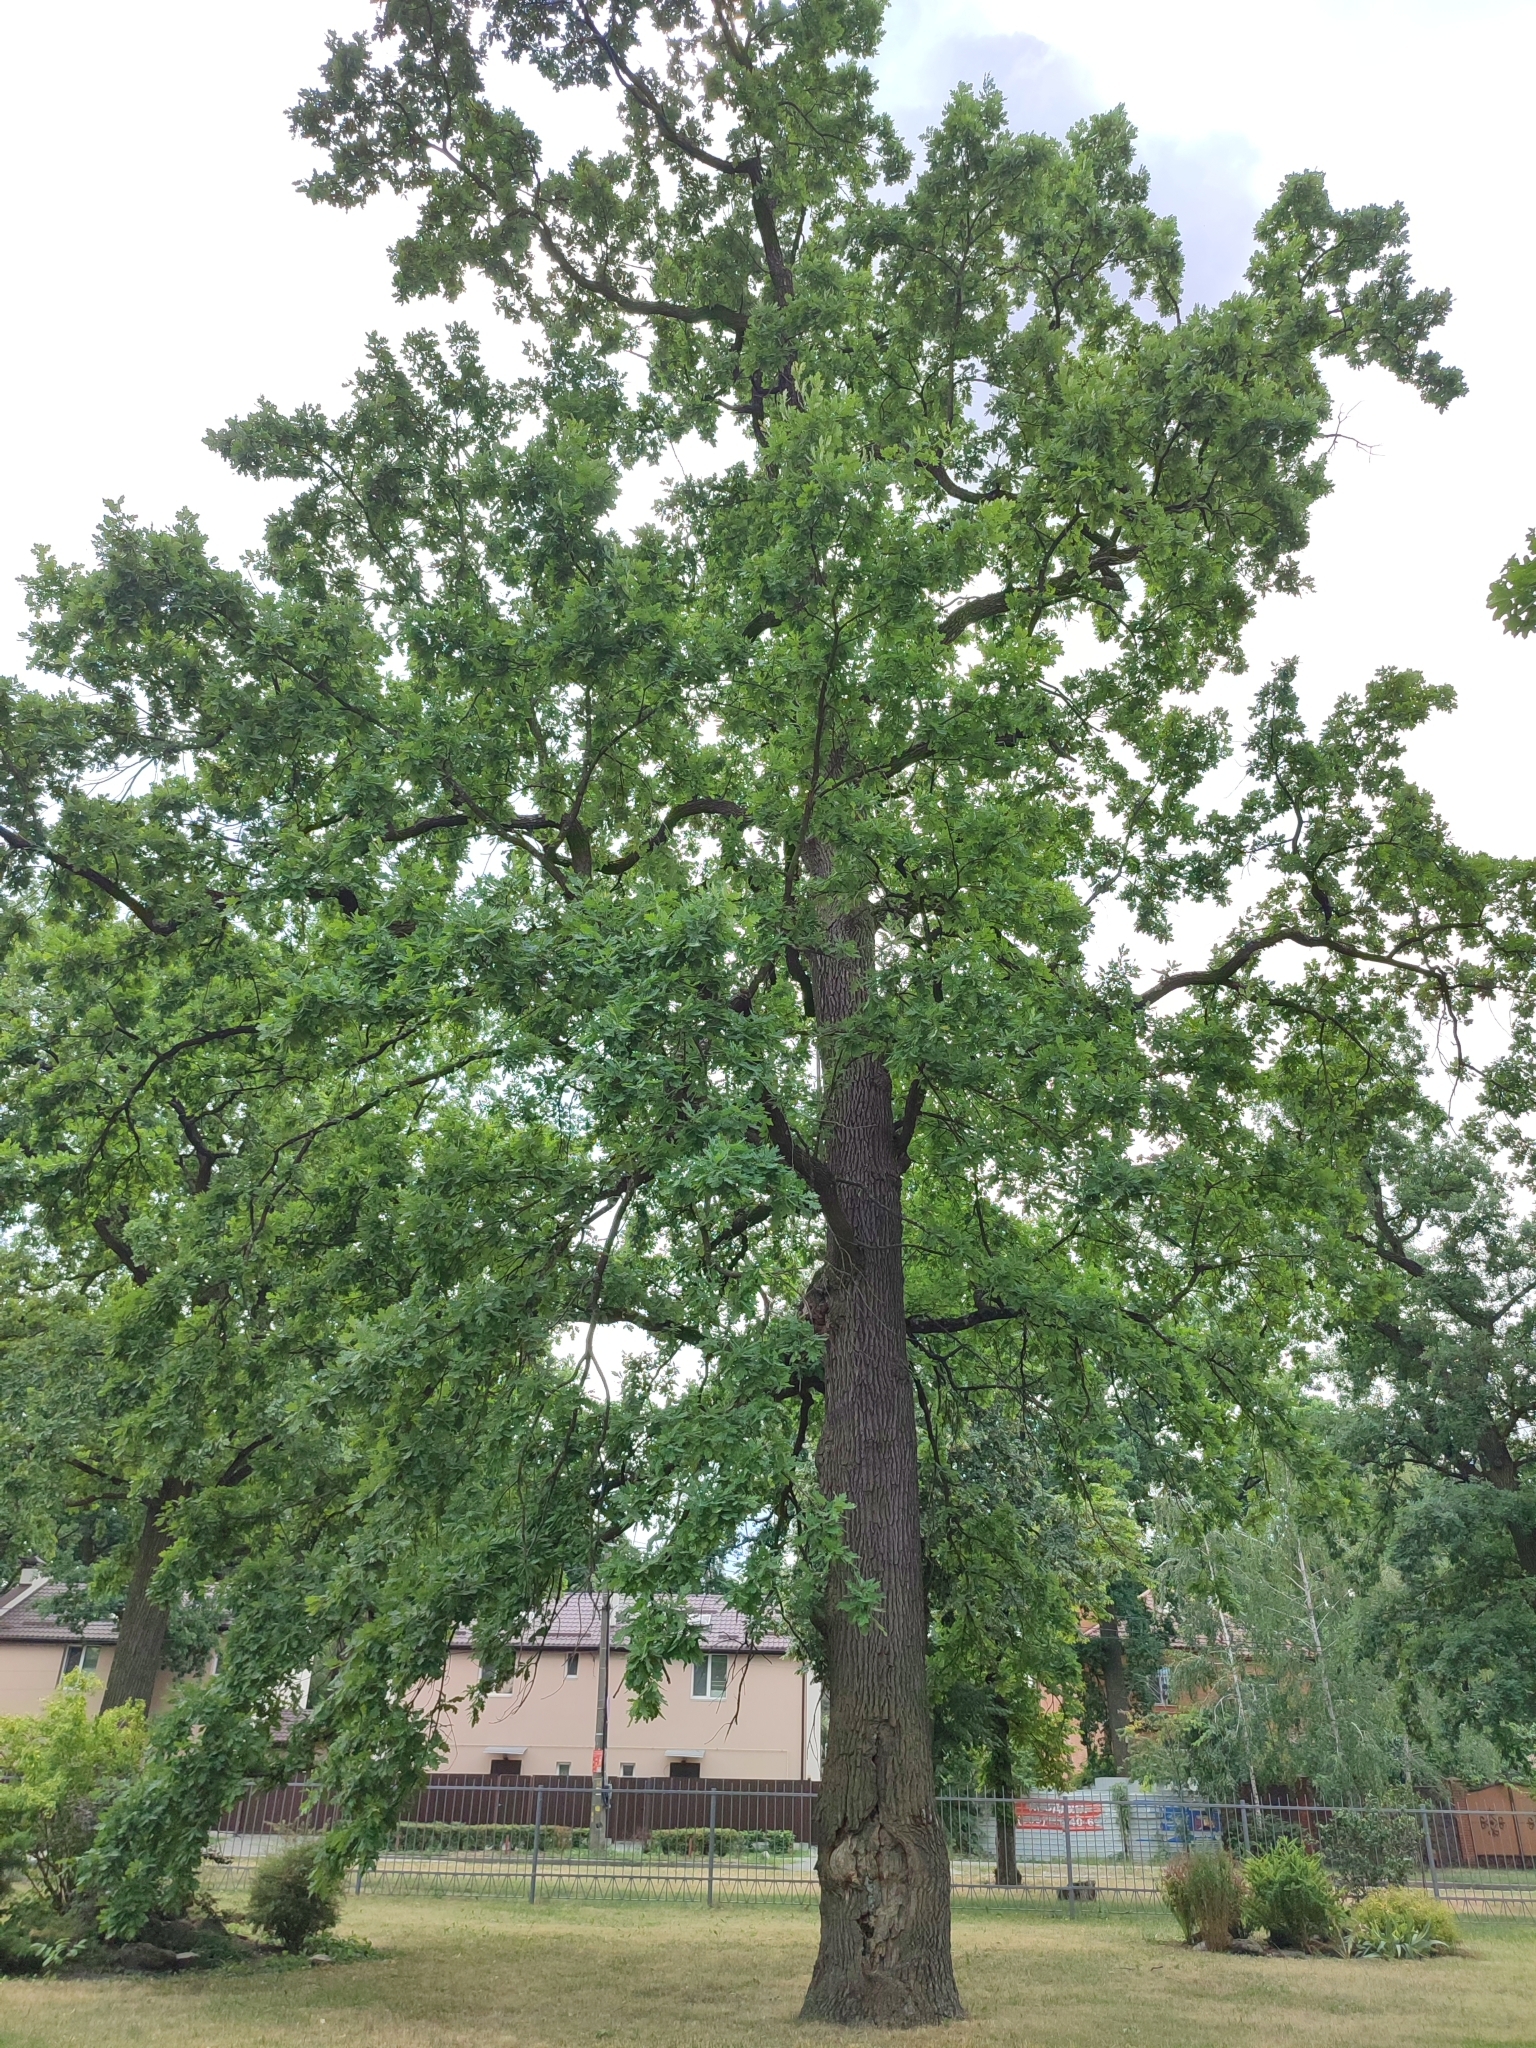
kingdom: Plantae
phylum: Tracheophyta
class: Magnoliopsida
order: Fagales
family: Fagaceae
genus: Quercus
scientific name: Quercus robur
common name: Pedunculate oak
